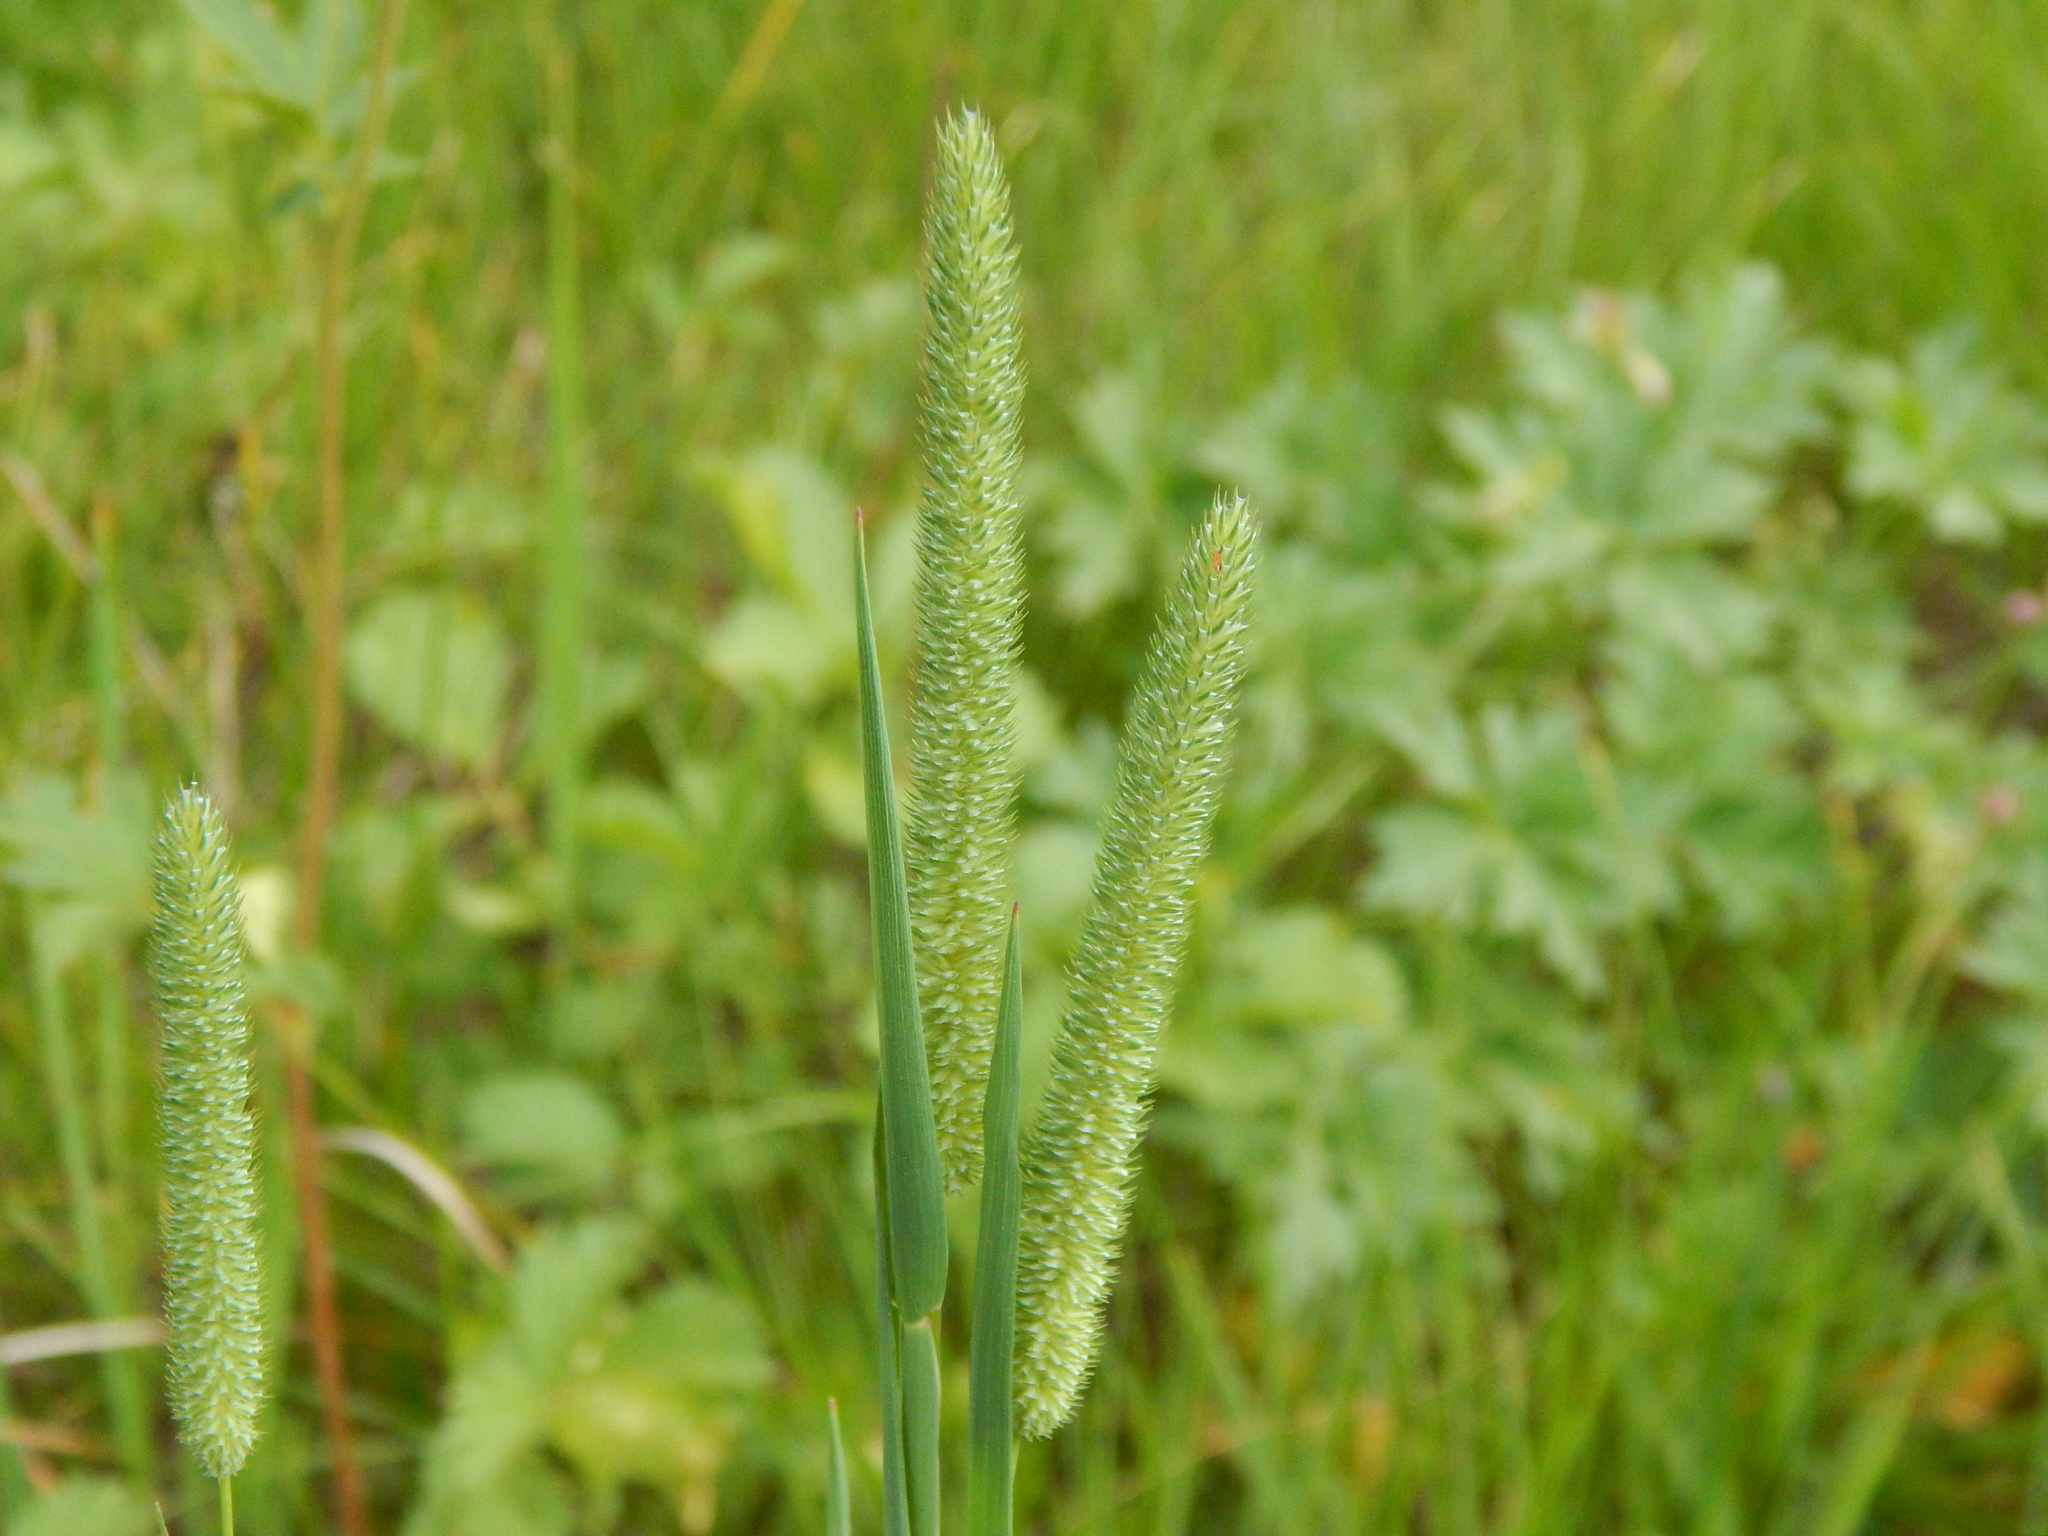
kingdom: Plantae
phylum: Tracheophyta
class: Liliopsida
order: Poales
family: Poaceae
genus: Phleum
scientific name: Phleum pratense
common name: Timothy grass
